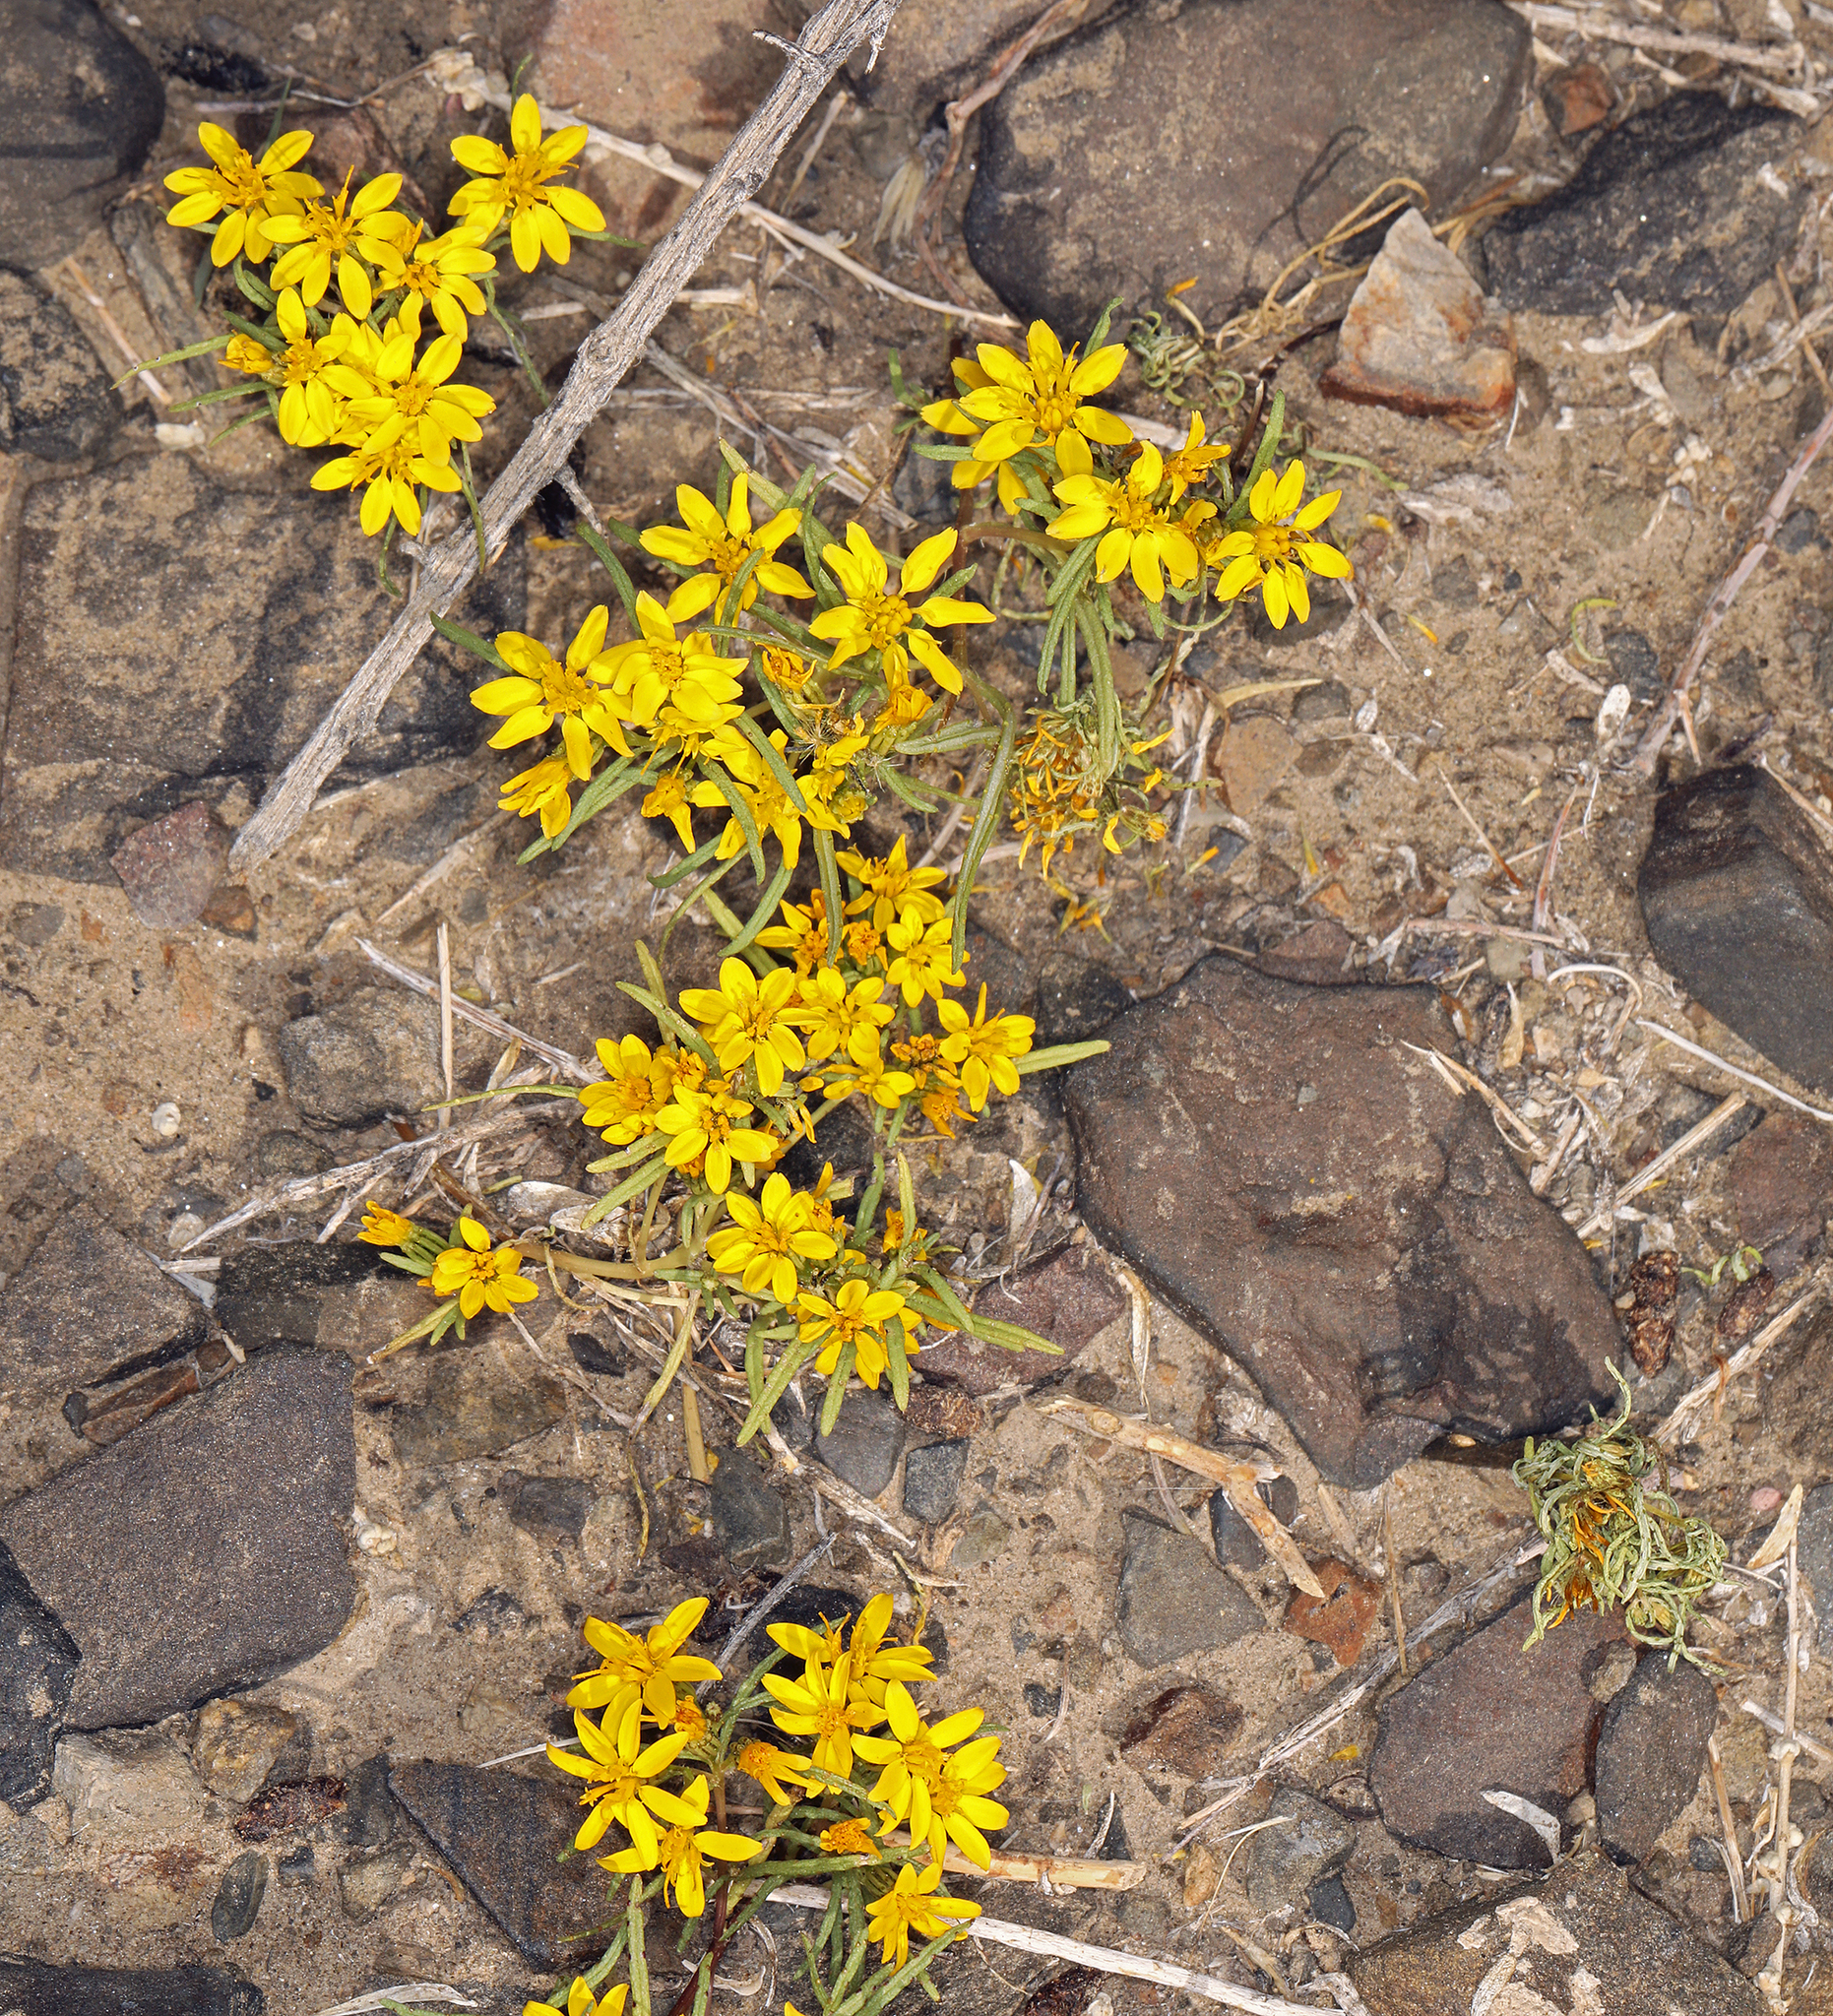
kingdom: Plantae
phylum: Tracheophyta
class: Magnoliopsida
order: Asterales
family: Asteraceae
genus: Pectis
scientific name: Pectis papposa
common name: Many-bristle chinchweed
